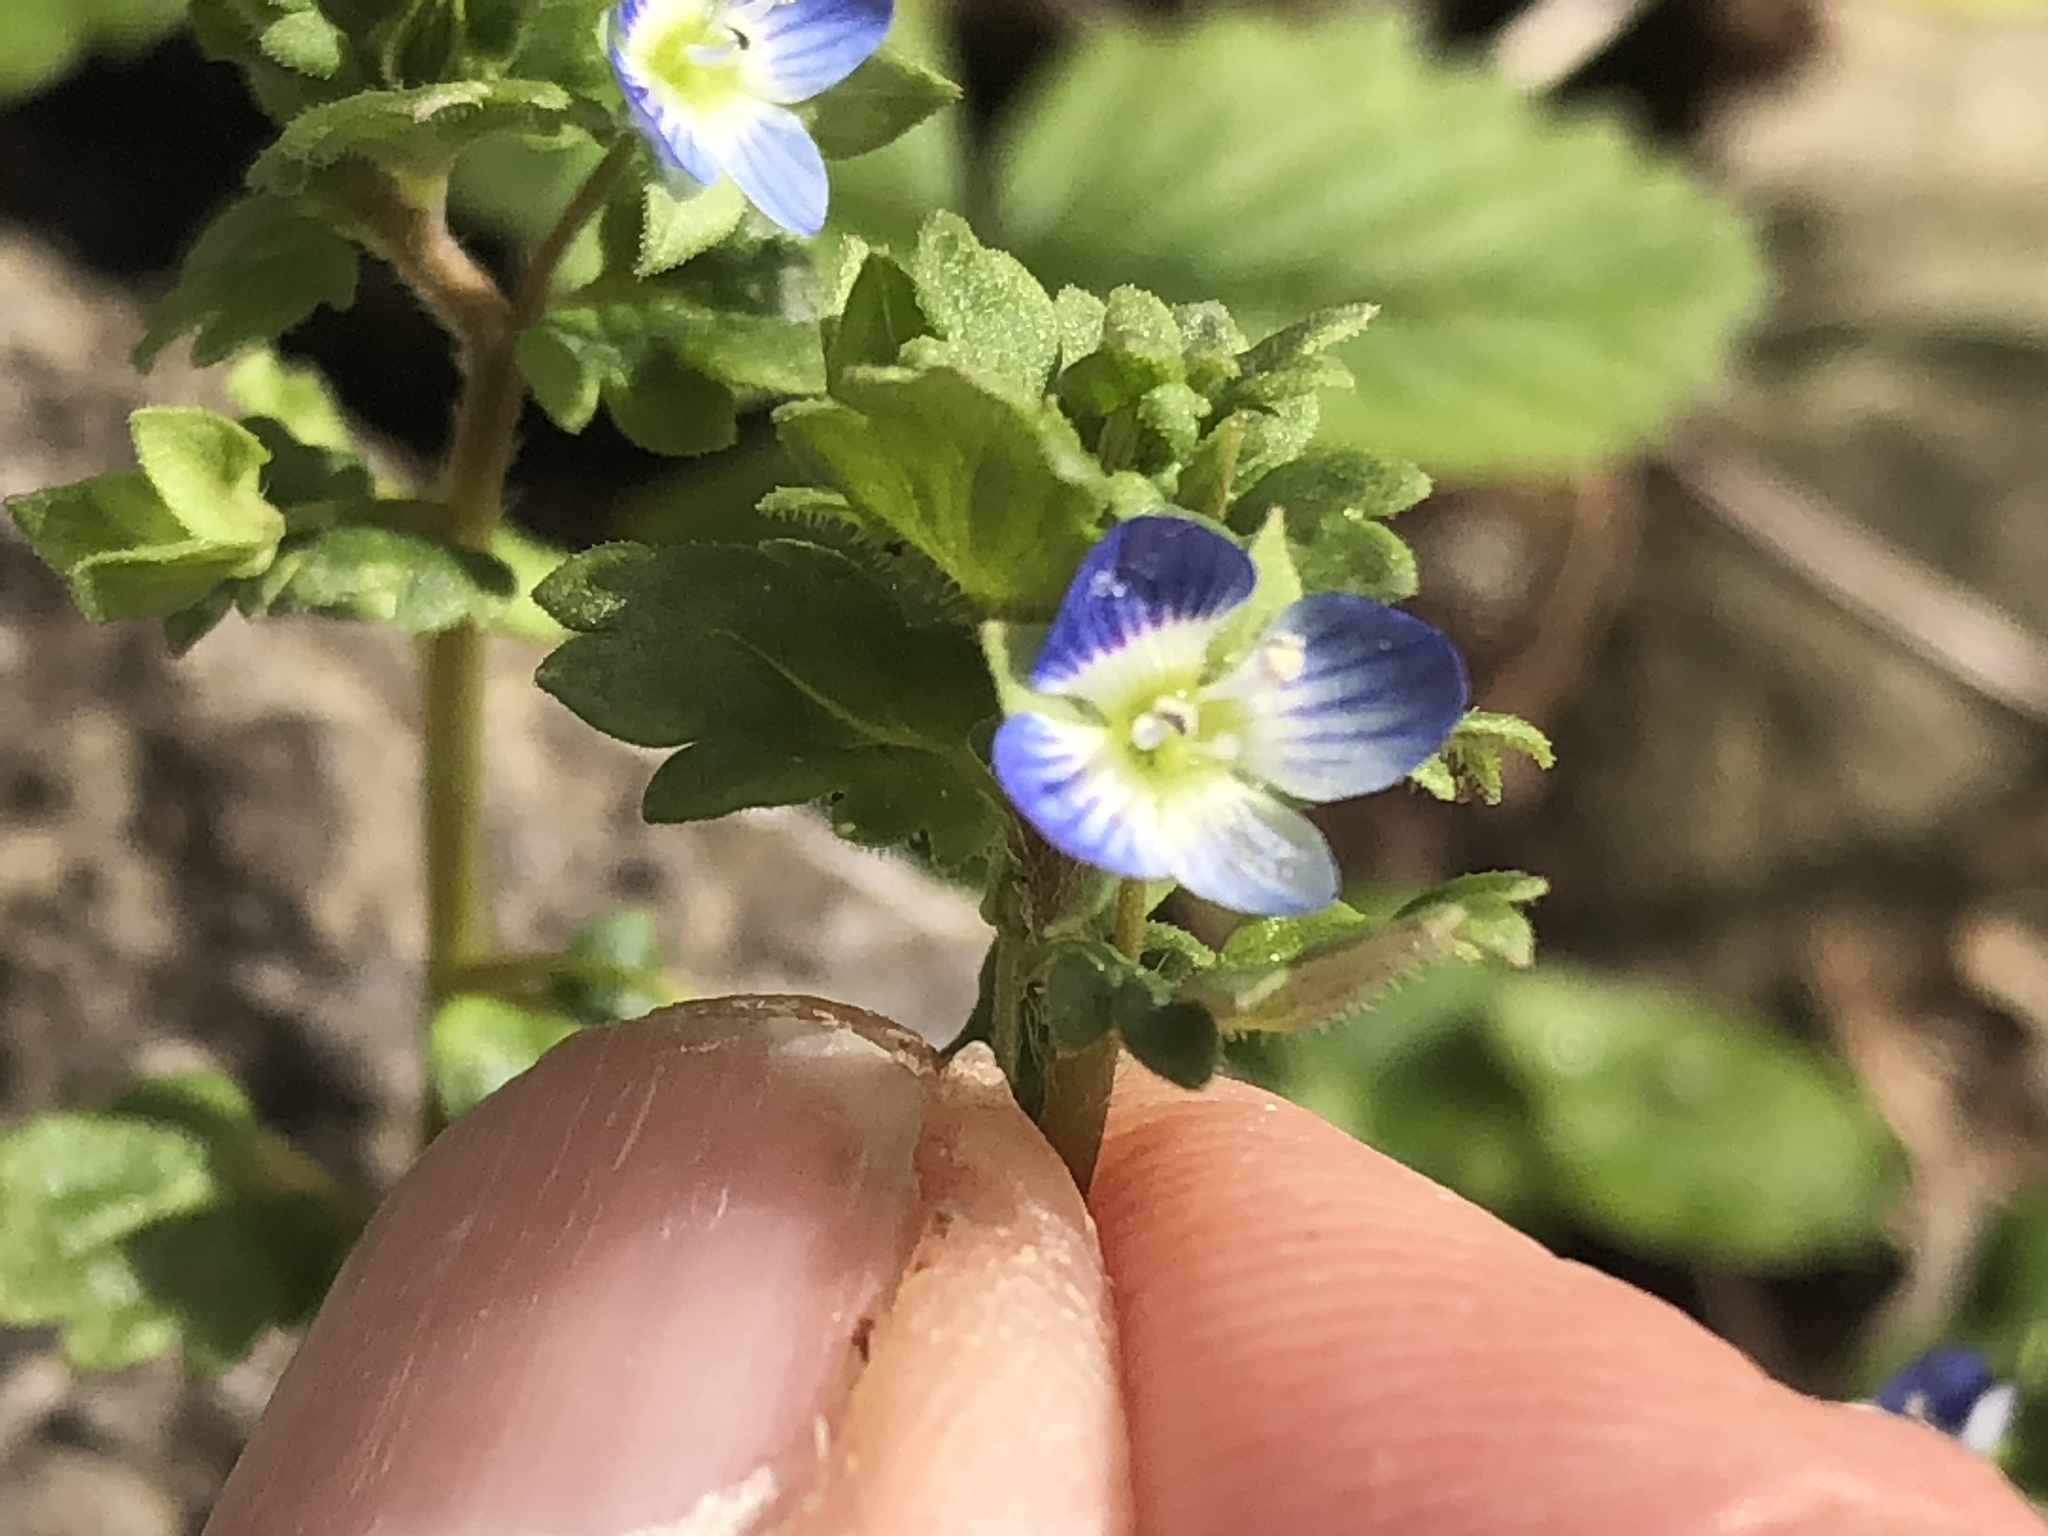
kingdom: Plantae
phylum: Tracheophyta
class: Magnoliopsida
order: Lamiales
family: Plantaginaceae
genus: Veronica
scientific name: Veronica polita
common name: Grey field-speedwell
